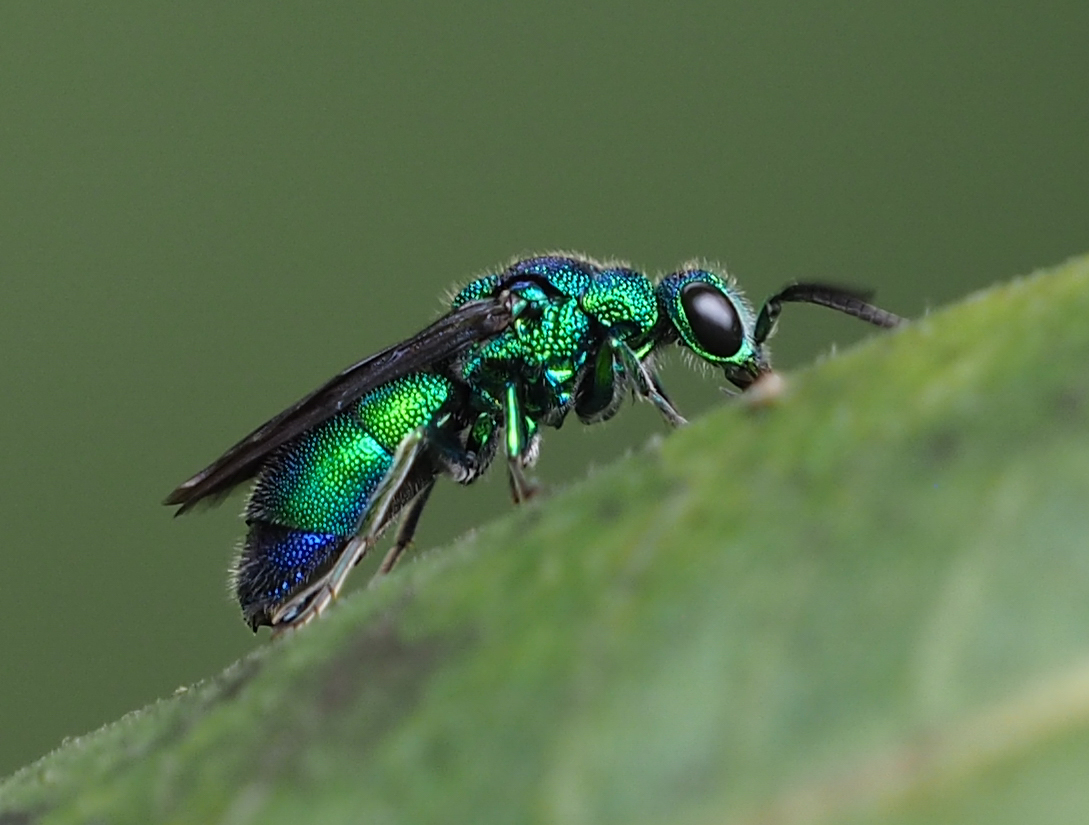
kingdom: Animalia
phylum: Arthropoda
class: Insecta
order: Hymenoptera
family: Chrysididae
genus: Chrysis
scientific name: Chrysis angolensis
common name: Cuckoo wasp
